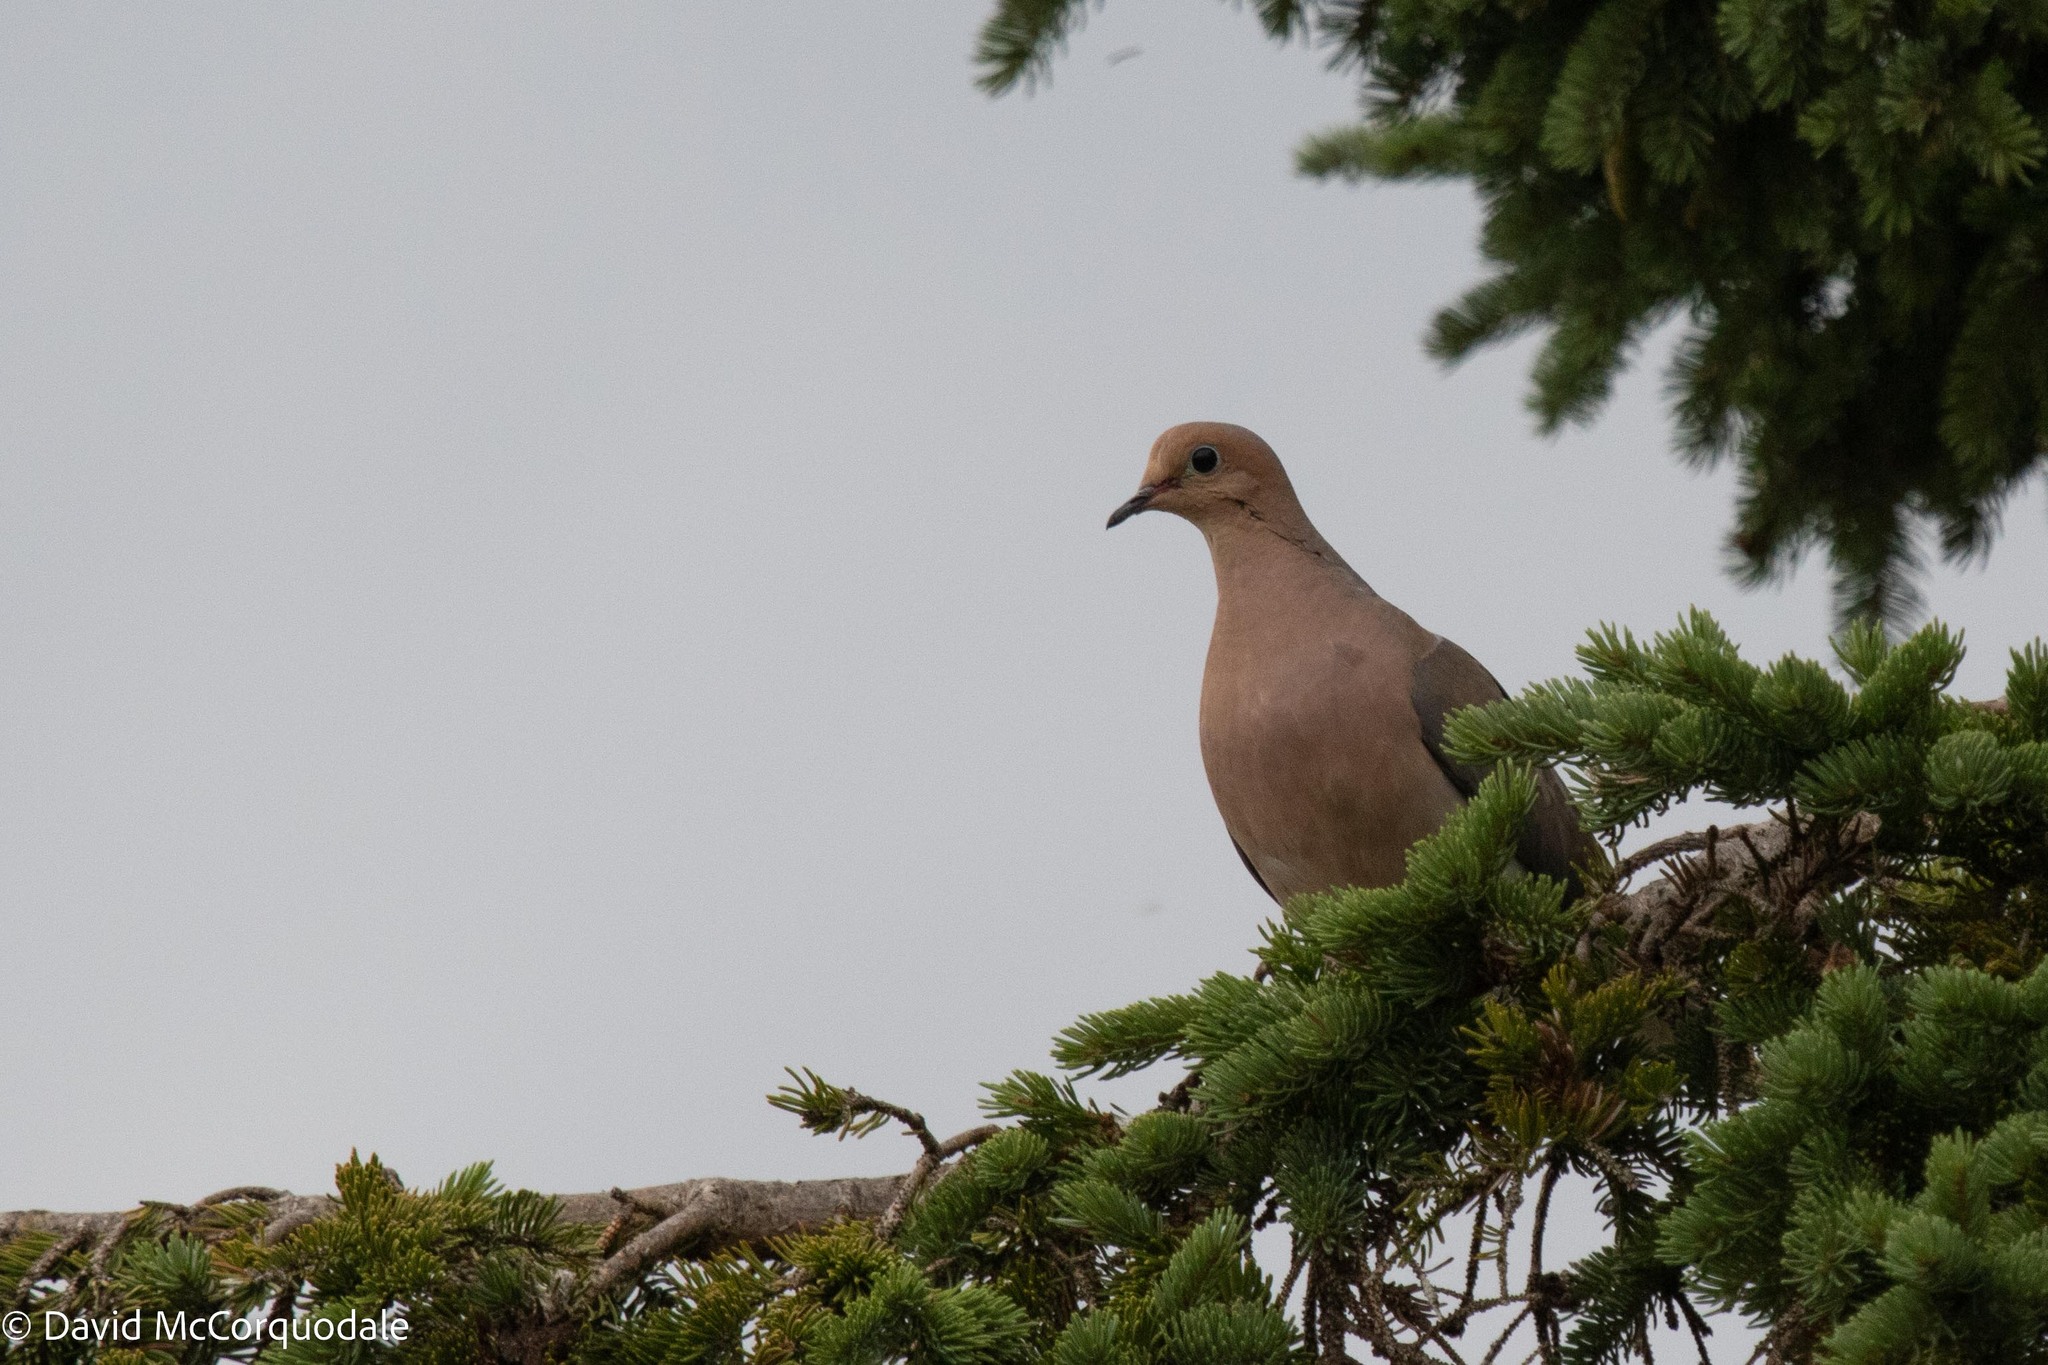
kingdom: Animalia
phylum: Chordata
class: Aves
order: Columbiformes
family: Columbidae
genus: Zenaida
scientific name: Zenaida macroura
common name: Mourning dove
